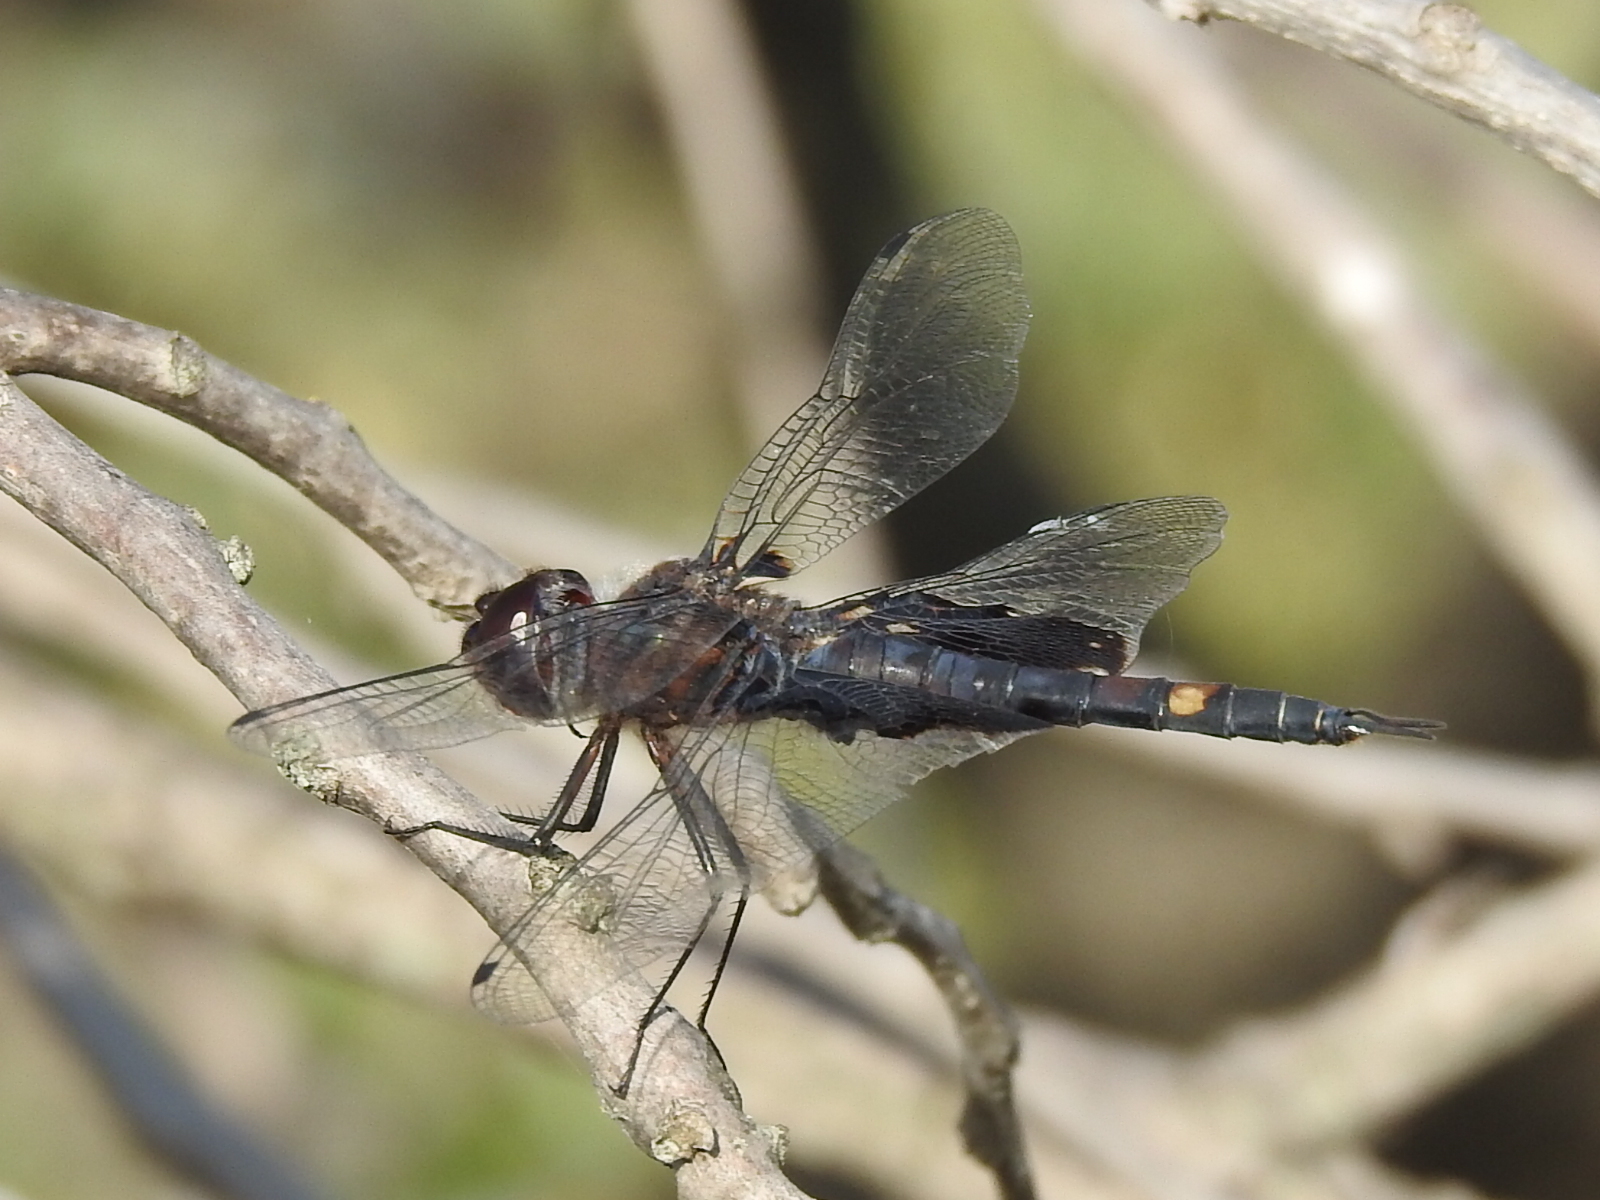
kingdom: Animalia
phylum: Arthropoda
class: Insecta
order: Odonata
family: Libellulidae
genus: Tramea
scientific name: Tramea lacerata
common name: Black saddlebags
